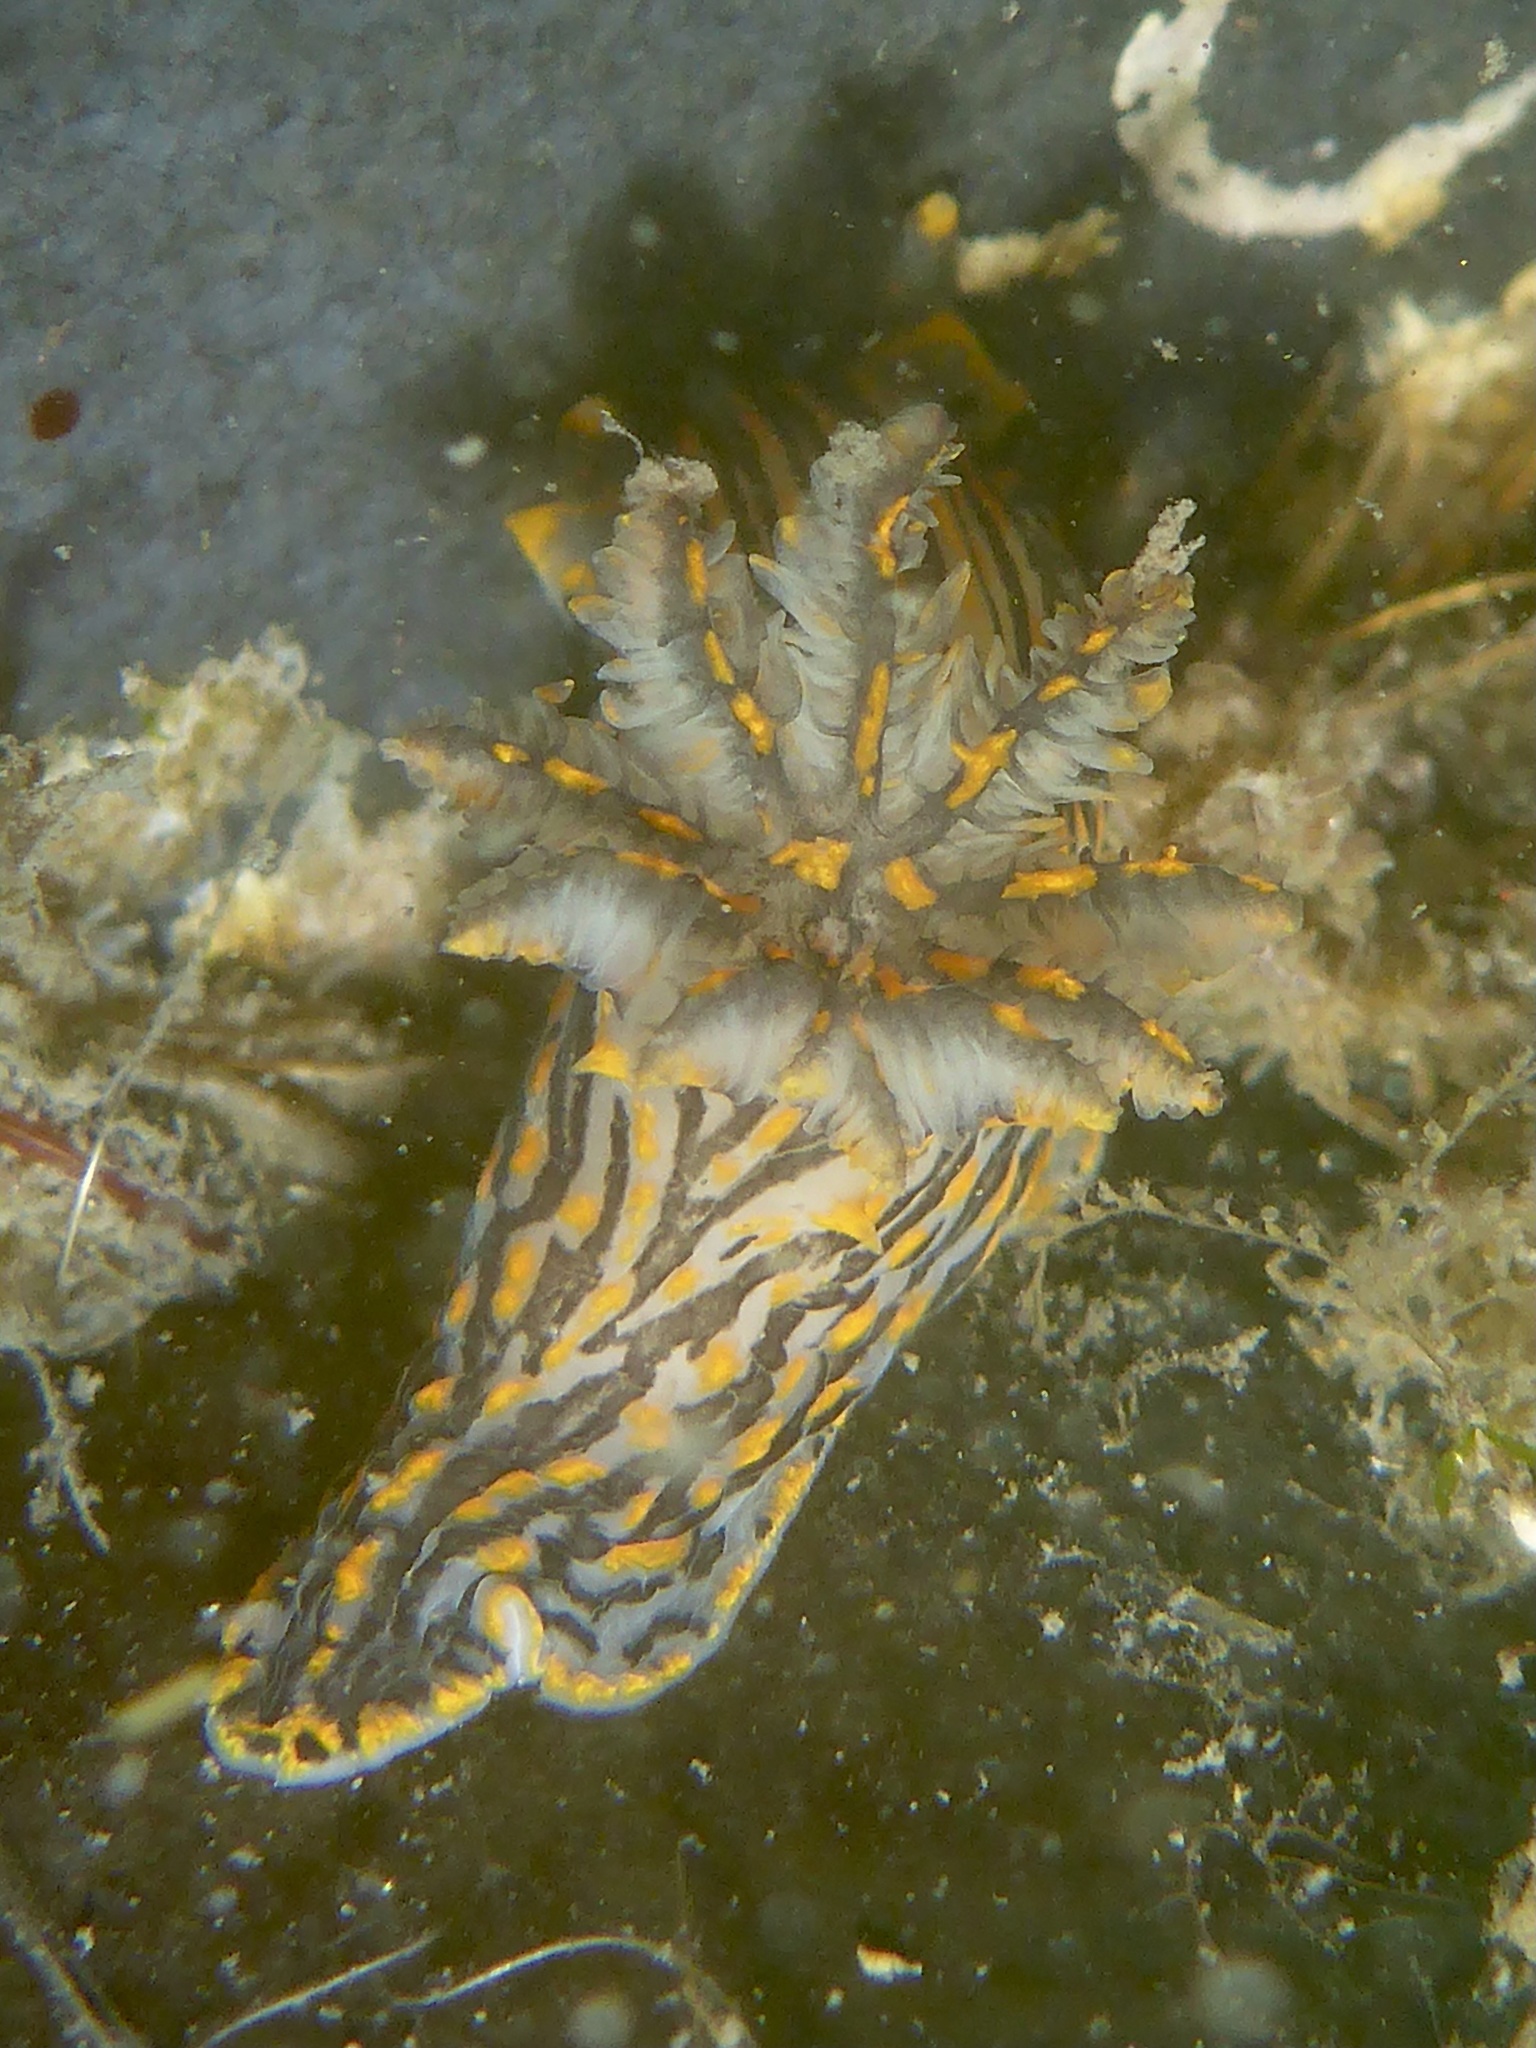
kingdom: Animalia
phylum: Mollusca
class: Gastropoda
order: Nudibranchia
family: Polyceridae
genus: Polycera
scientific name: Polycera atra
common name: Orange-spike polycera
